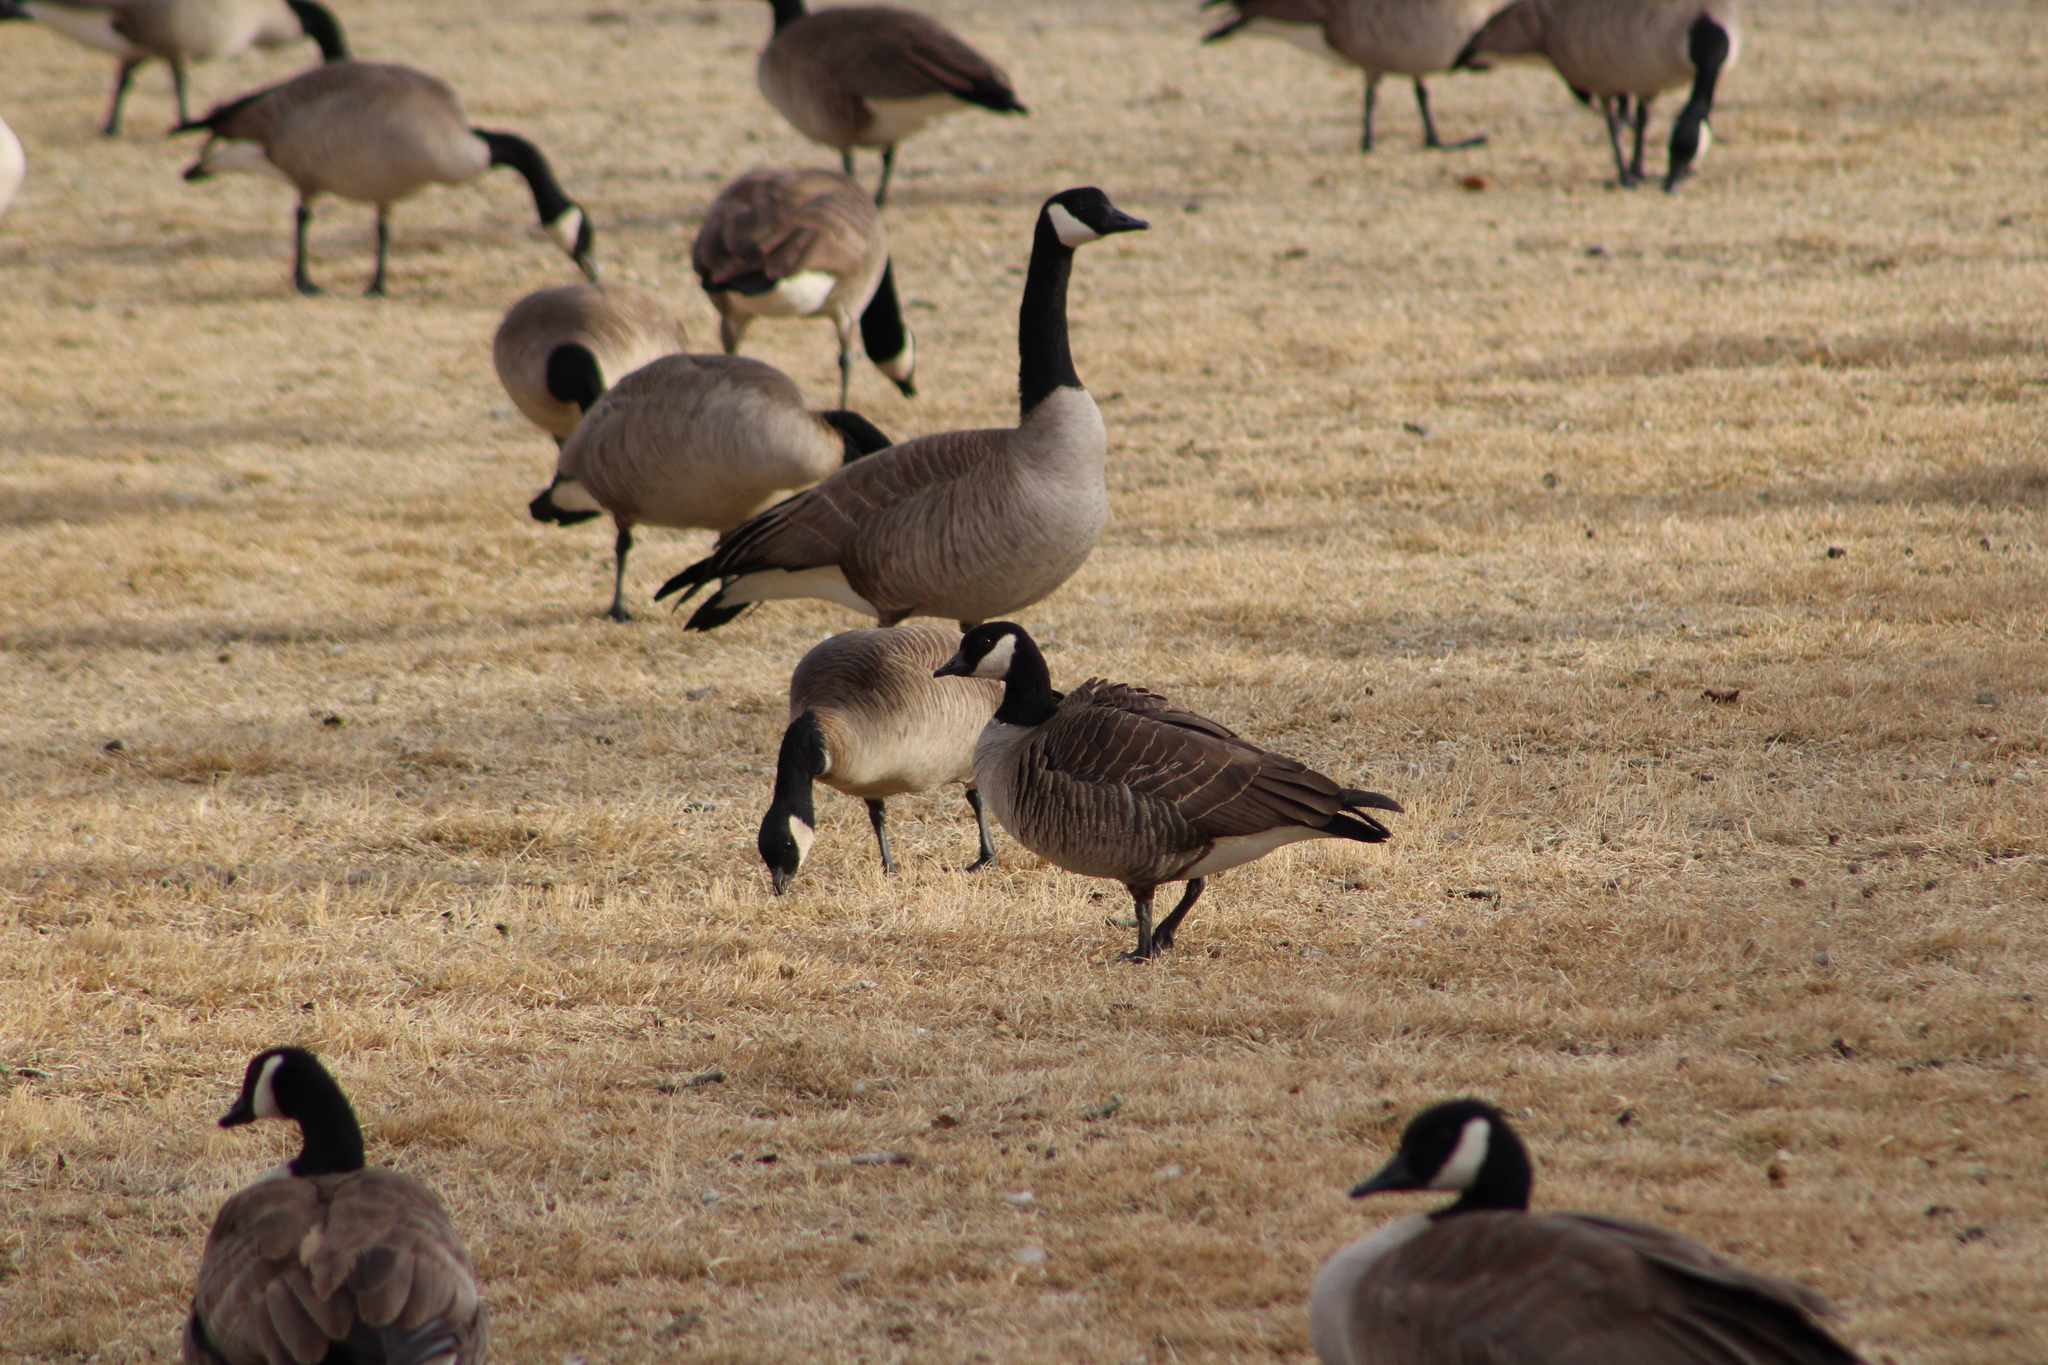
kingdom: Animalia
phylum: Chordata
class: Aves
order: Anseriformes
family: Anatidae
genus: Branta
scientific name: Branta hutchinsii
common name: Cackling goose
